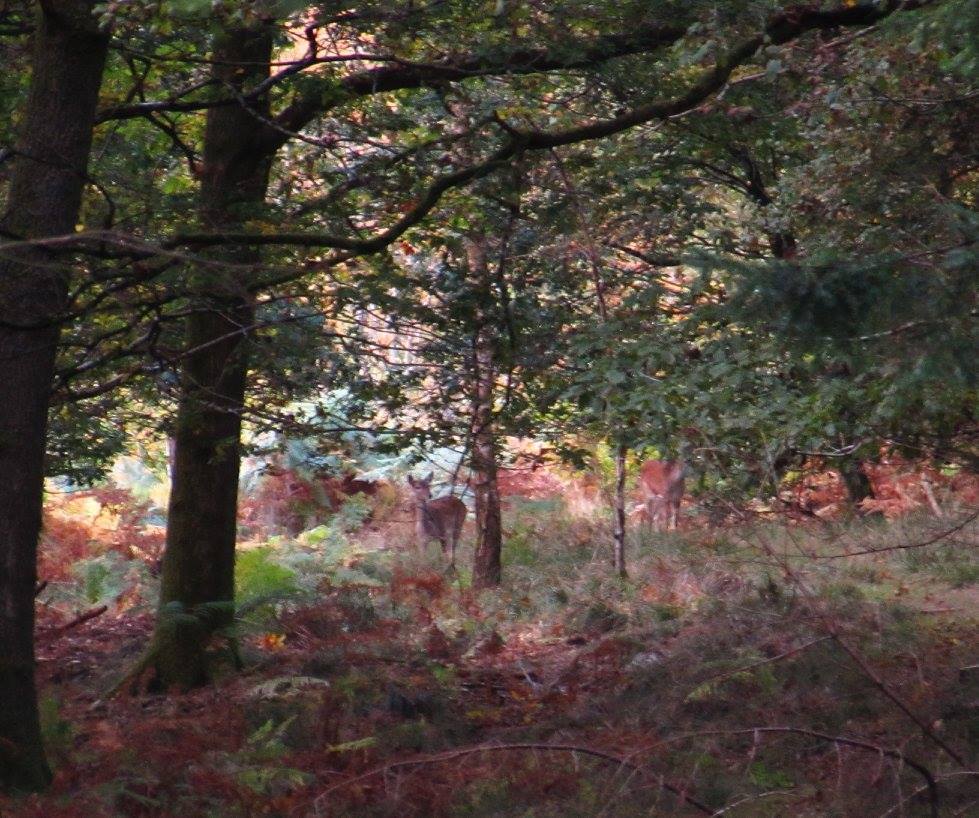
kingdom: Animalia
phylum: Chordata
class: Mammalia
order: Artiodactyla
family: Cervidae
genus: Dama
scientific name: Dama dama
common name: Fallow deer
